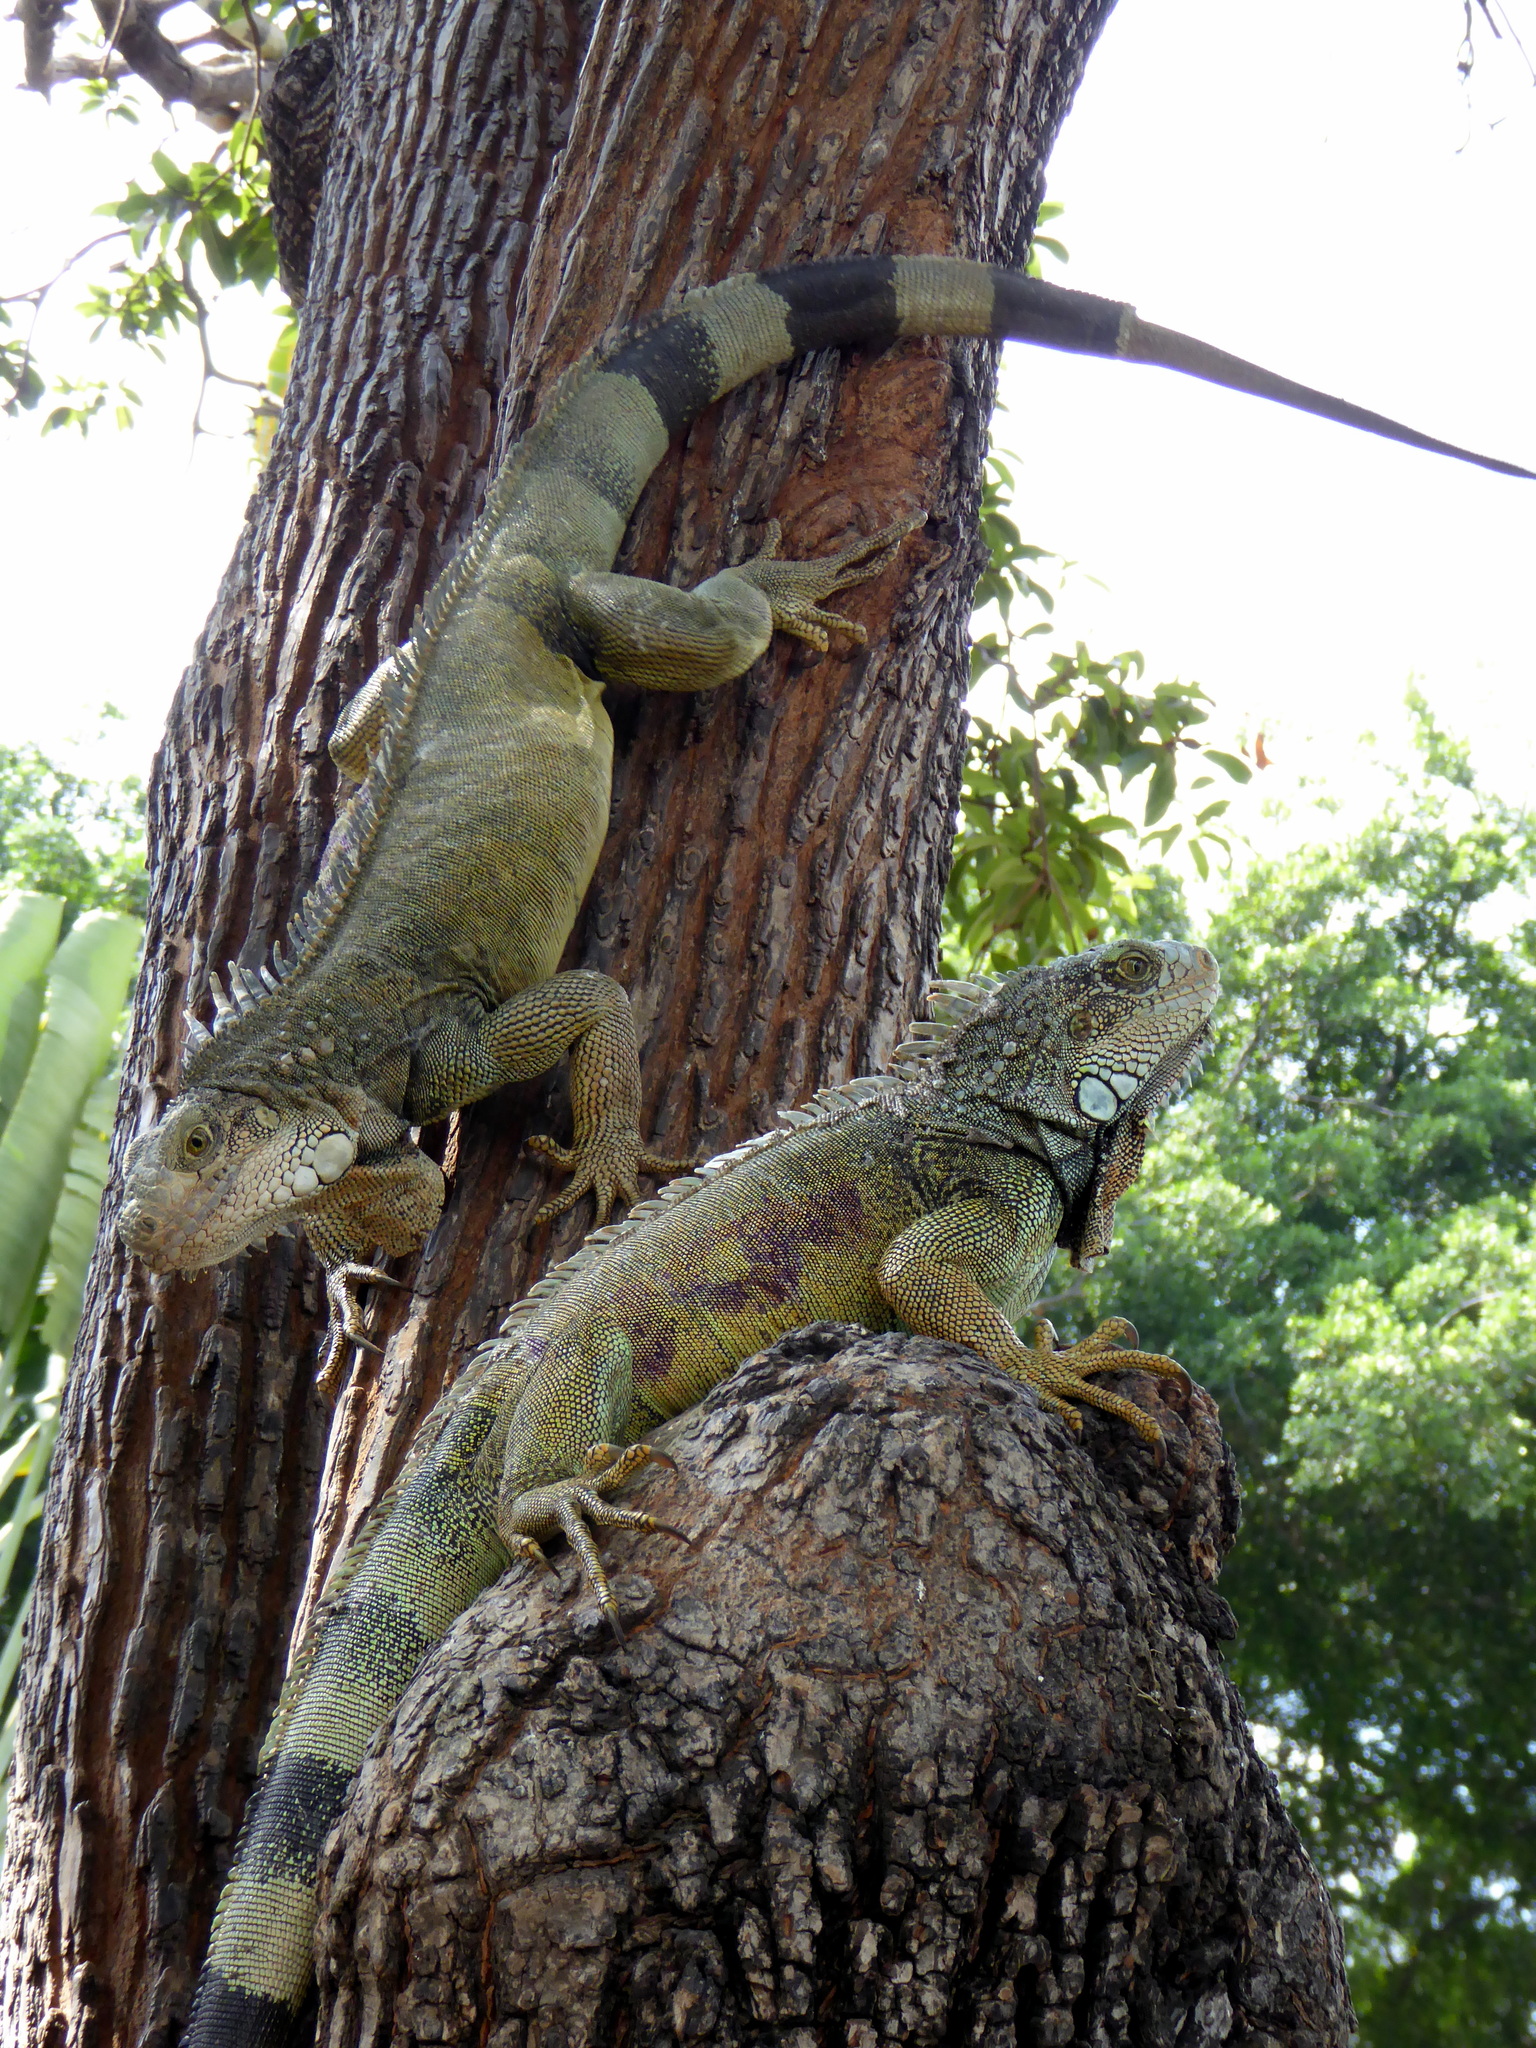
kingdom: Animalia
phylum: Chordata
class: Squamata
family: Iguanidae
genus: Iguana
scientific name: Iguana iguana
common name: Green iguana
